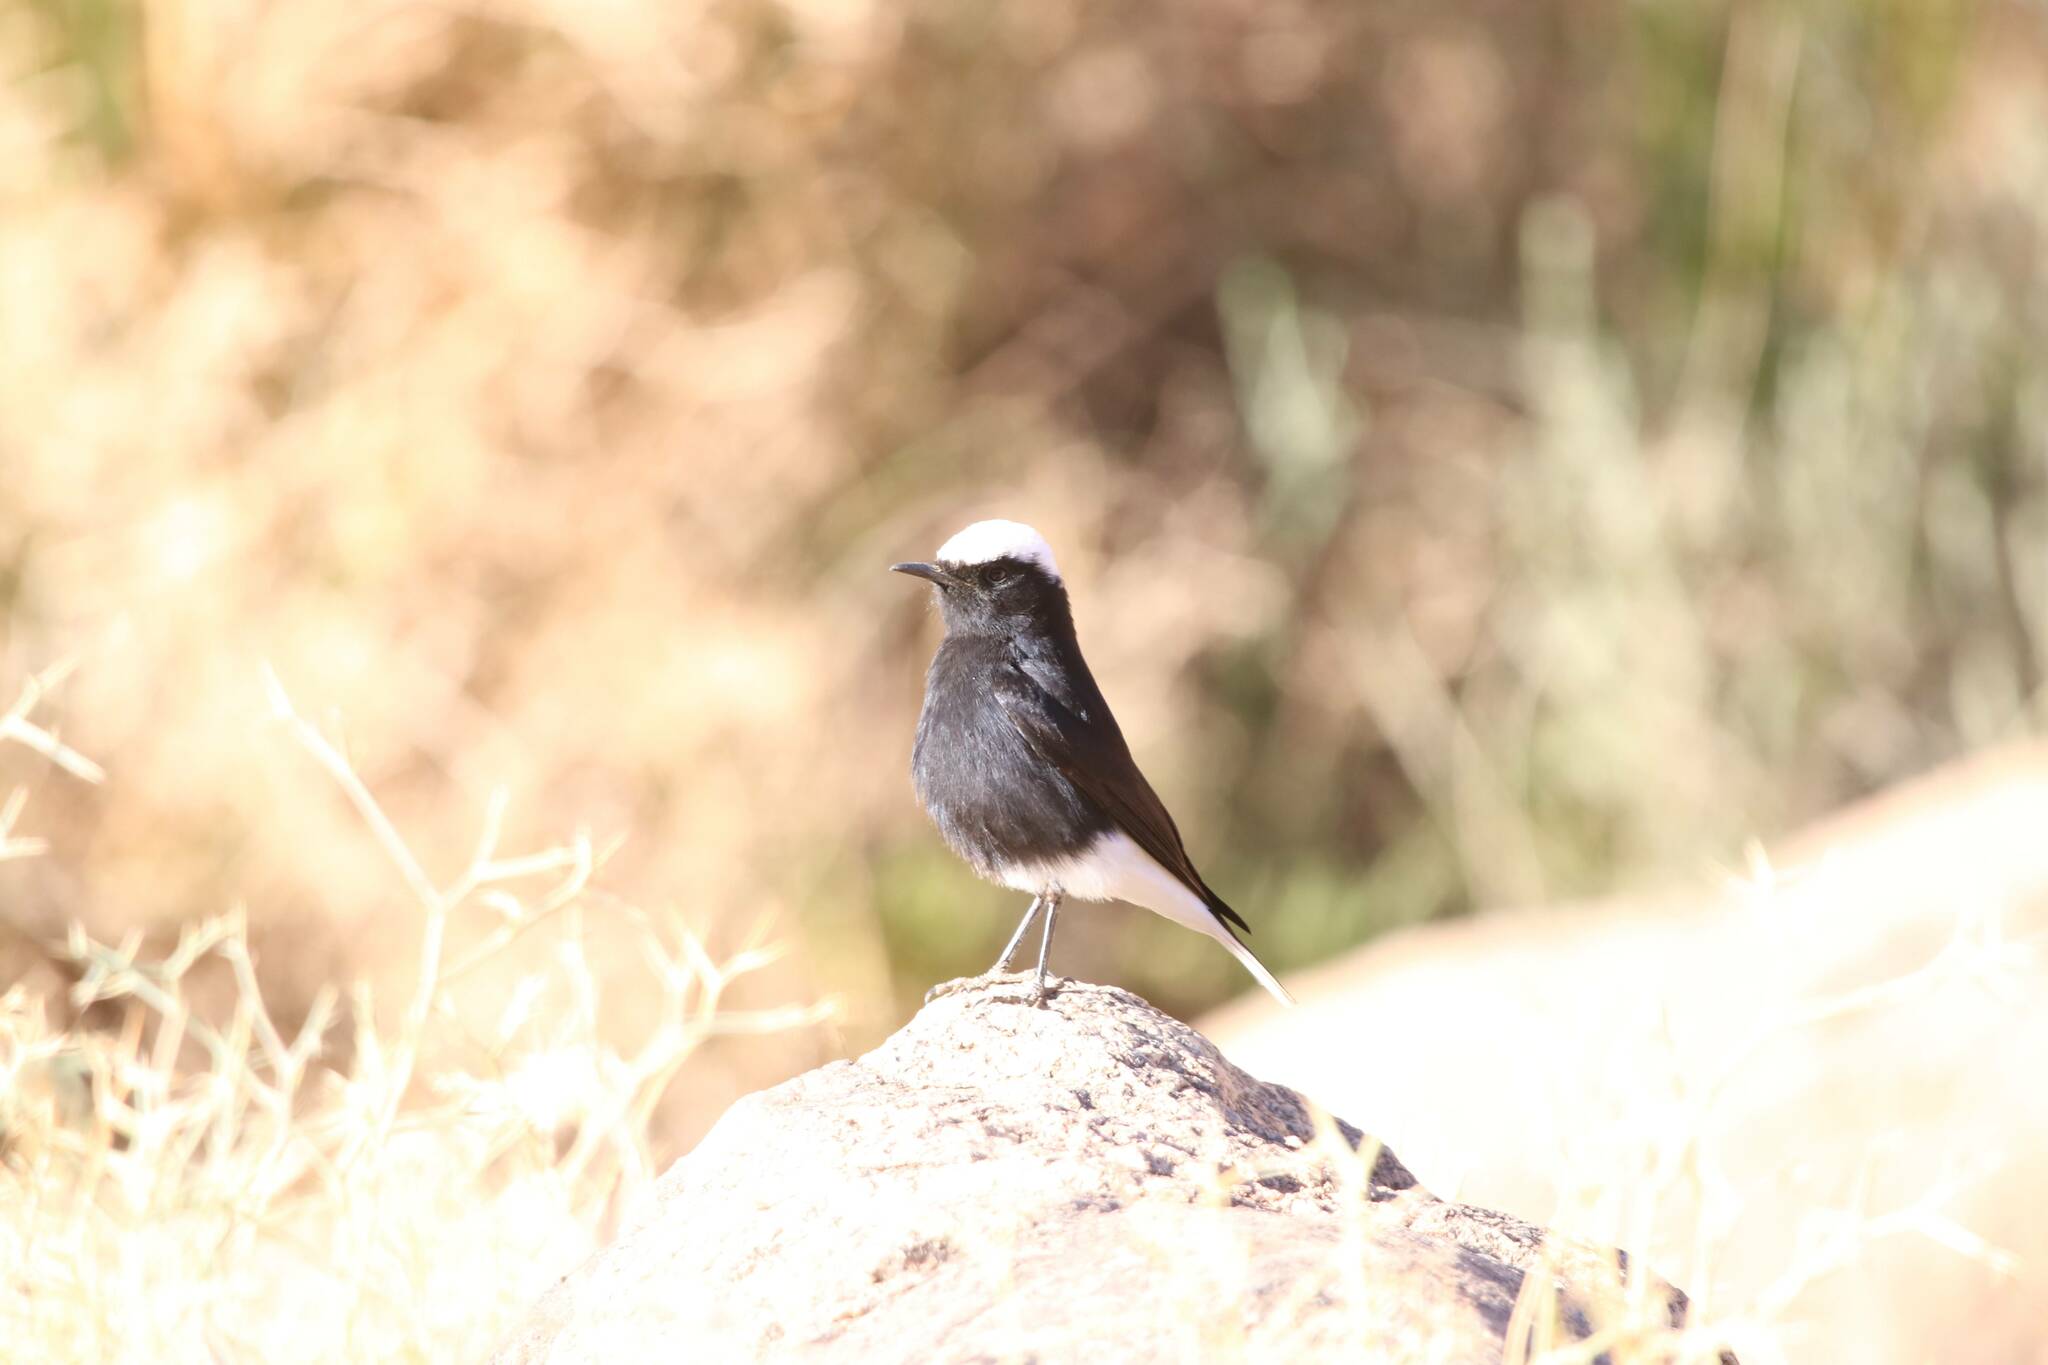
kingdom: Animalia
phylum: Chordata
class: Aves
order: Passeriformes
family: Muscicapidae
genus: Oenanthe
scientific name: Oenanthe leucopyga
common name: White-crowned wheatear
